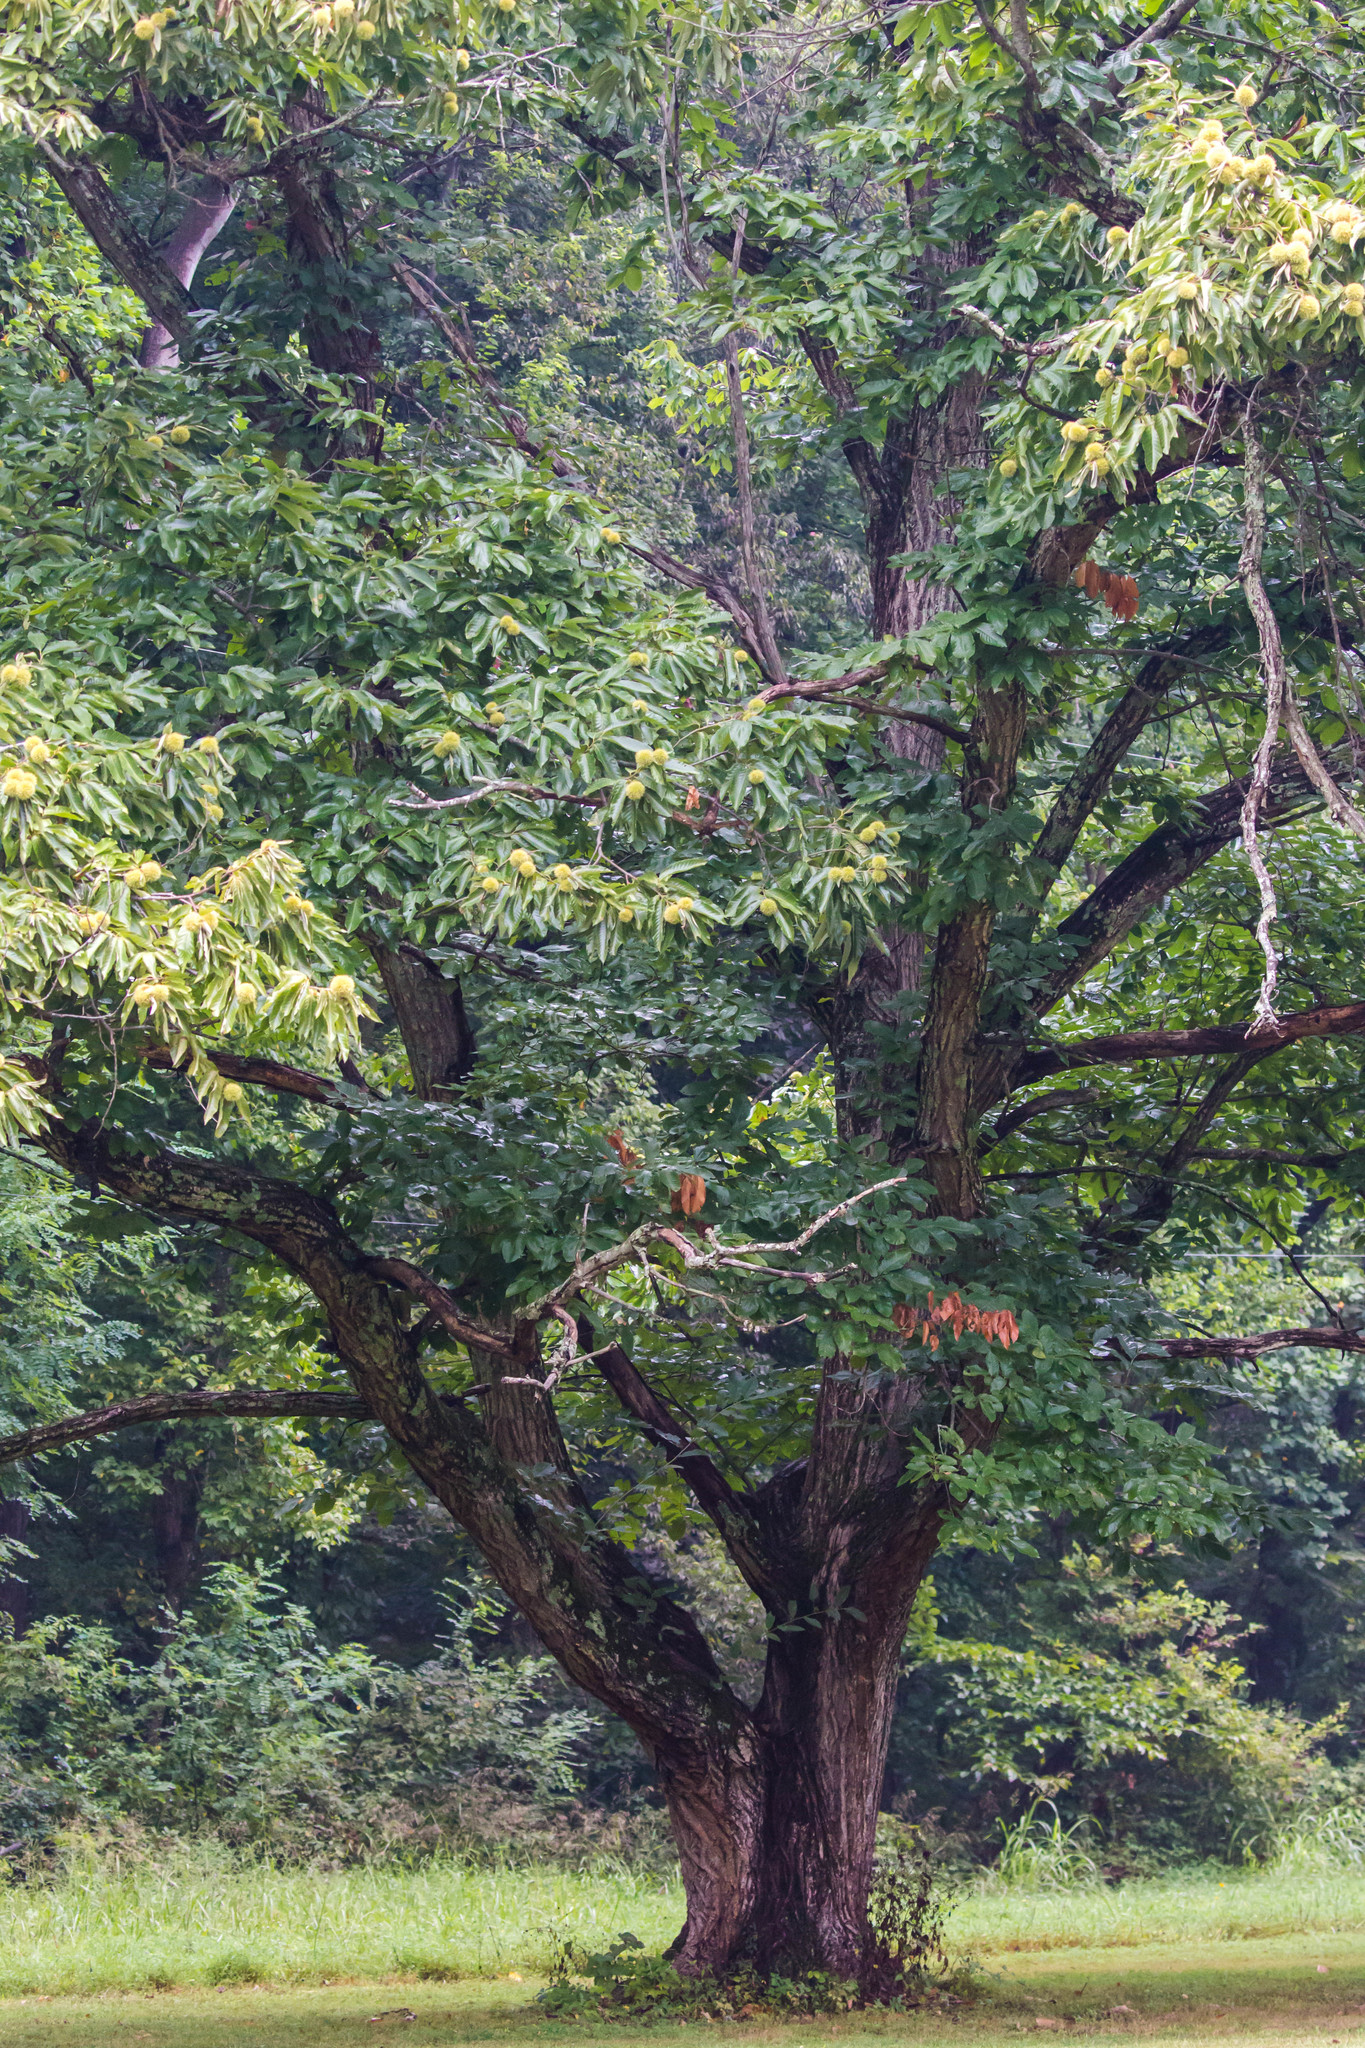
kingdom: Plantae
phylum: Tracheophyta
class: Magnoliopsida
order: Fagales
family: Fagaceae
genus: Castanea
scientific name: Castanea mollissima
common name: Chinese chestnut
